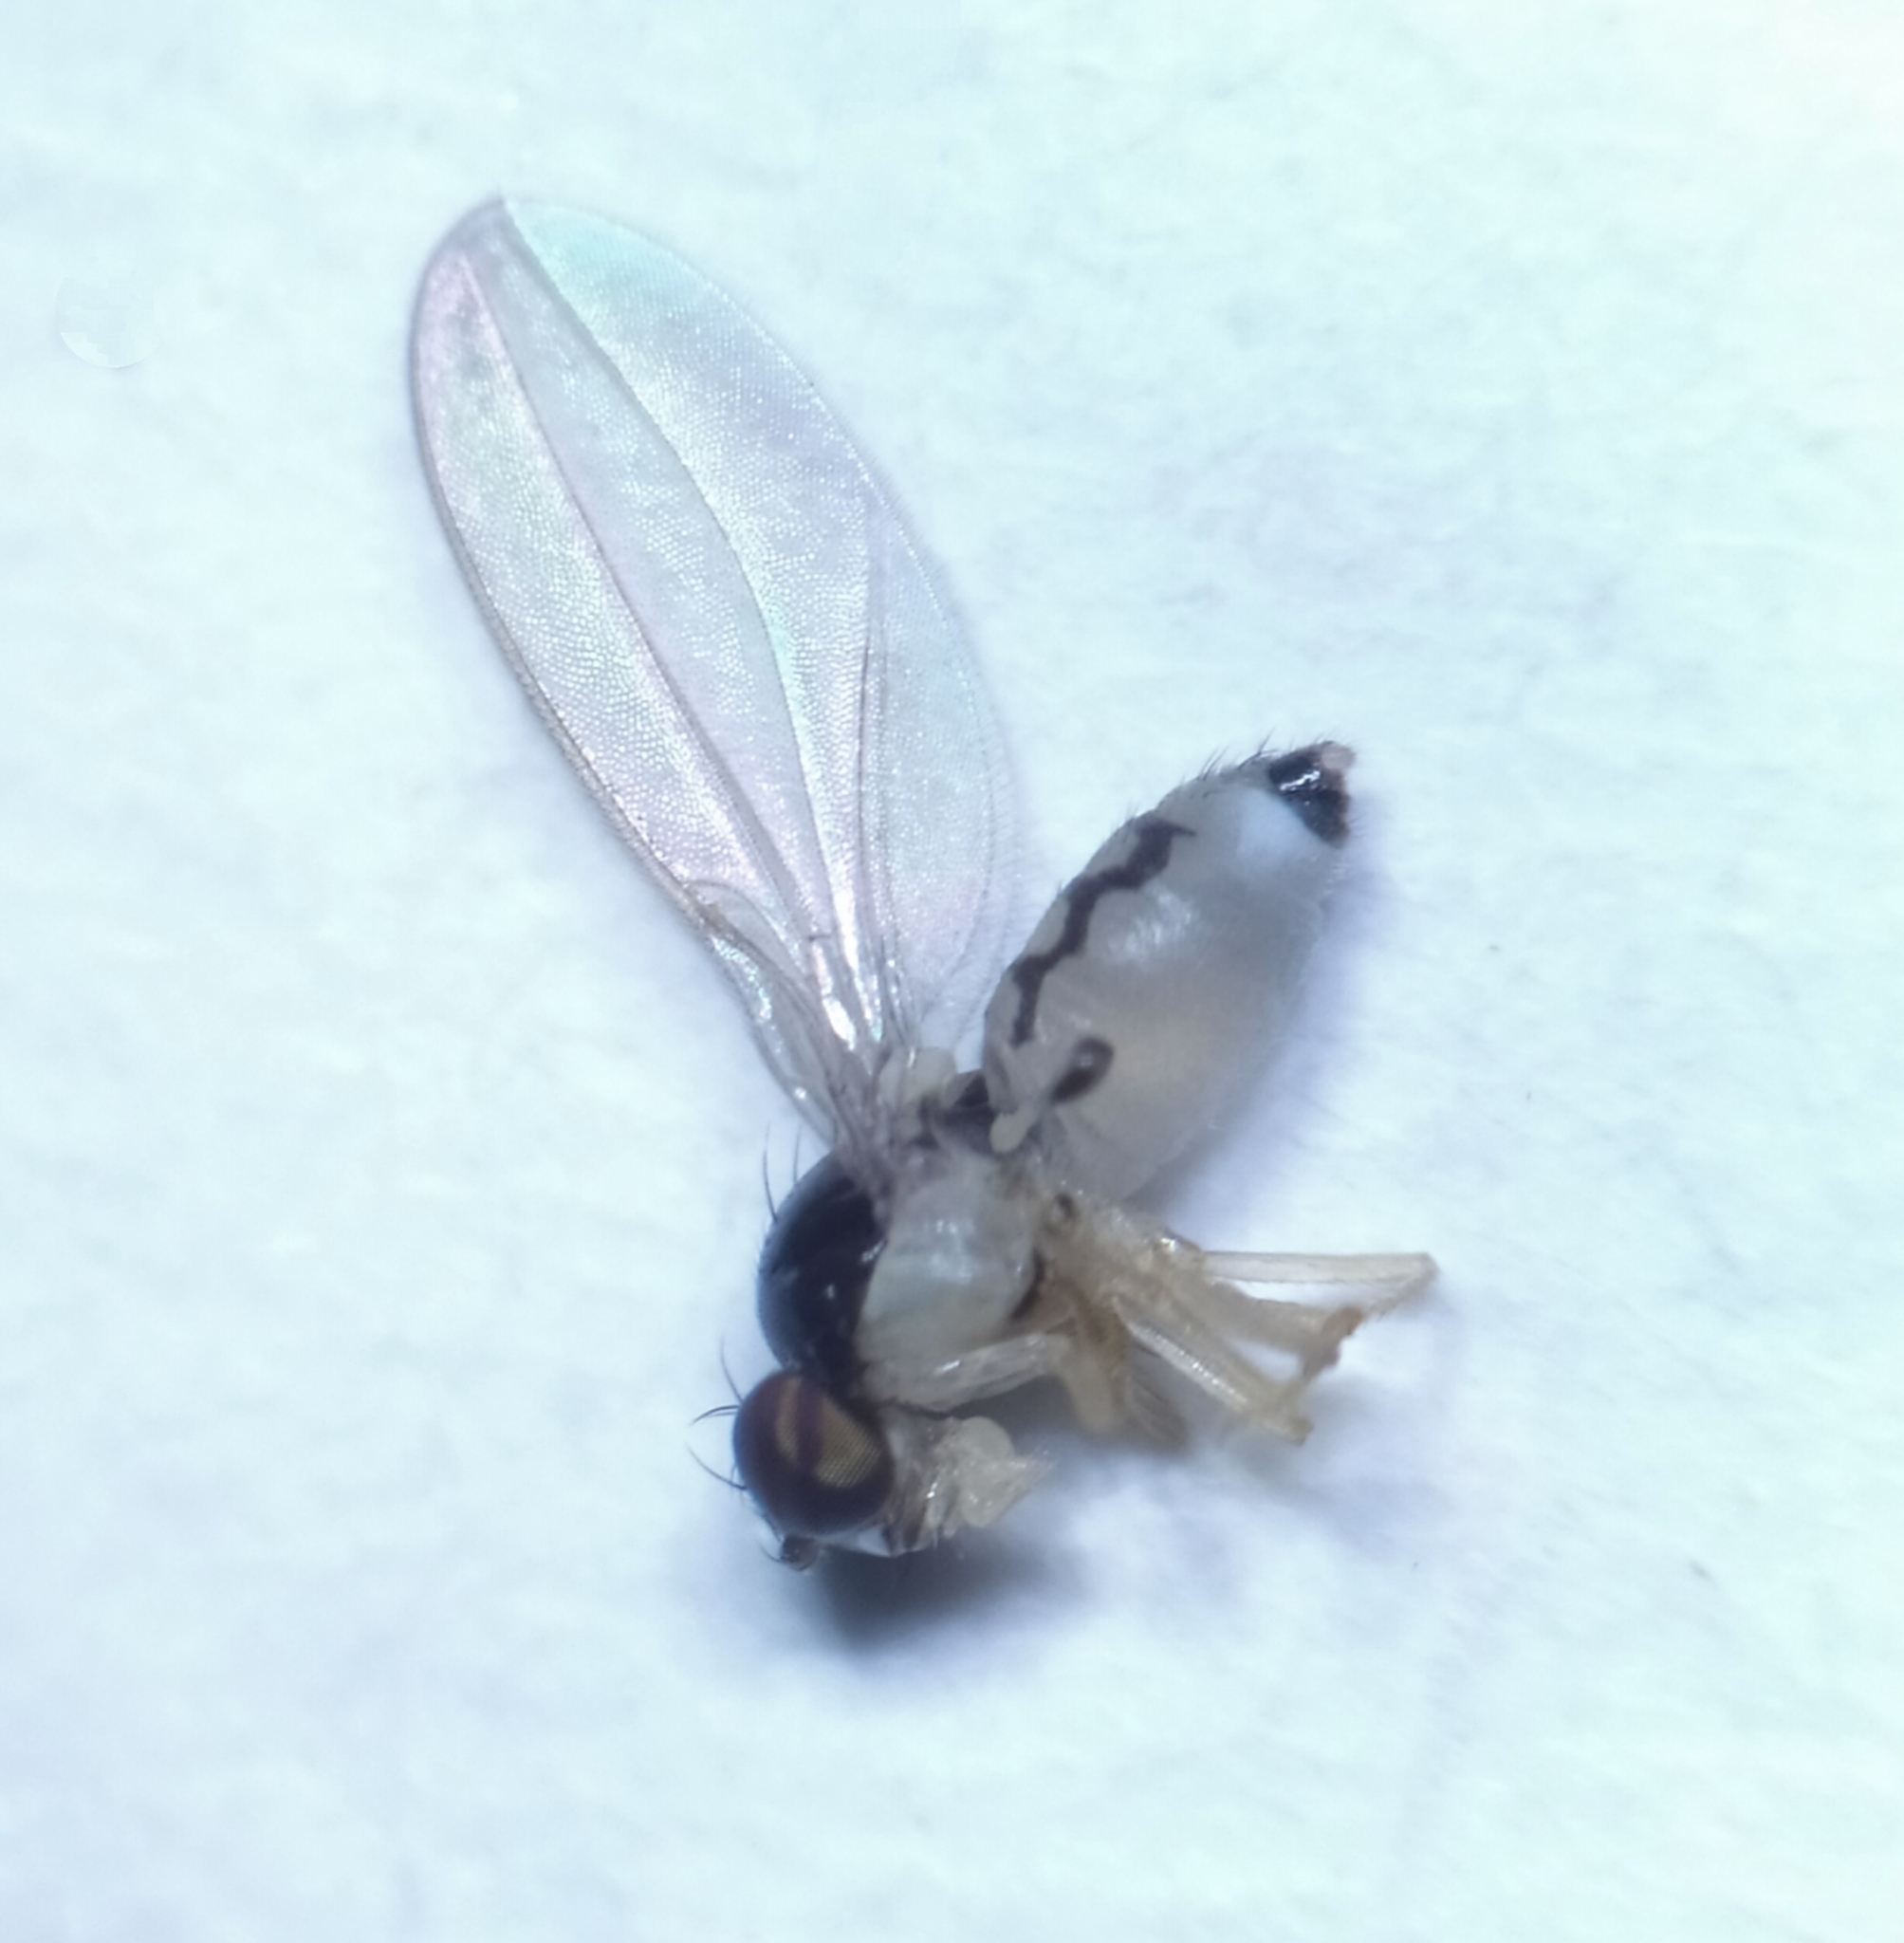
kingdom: Animalia
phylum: Arthropoda
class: Insecta
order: Diptera
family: Asteiidae
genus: Asteia
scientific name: Asteia amoena
